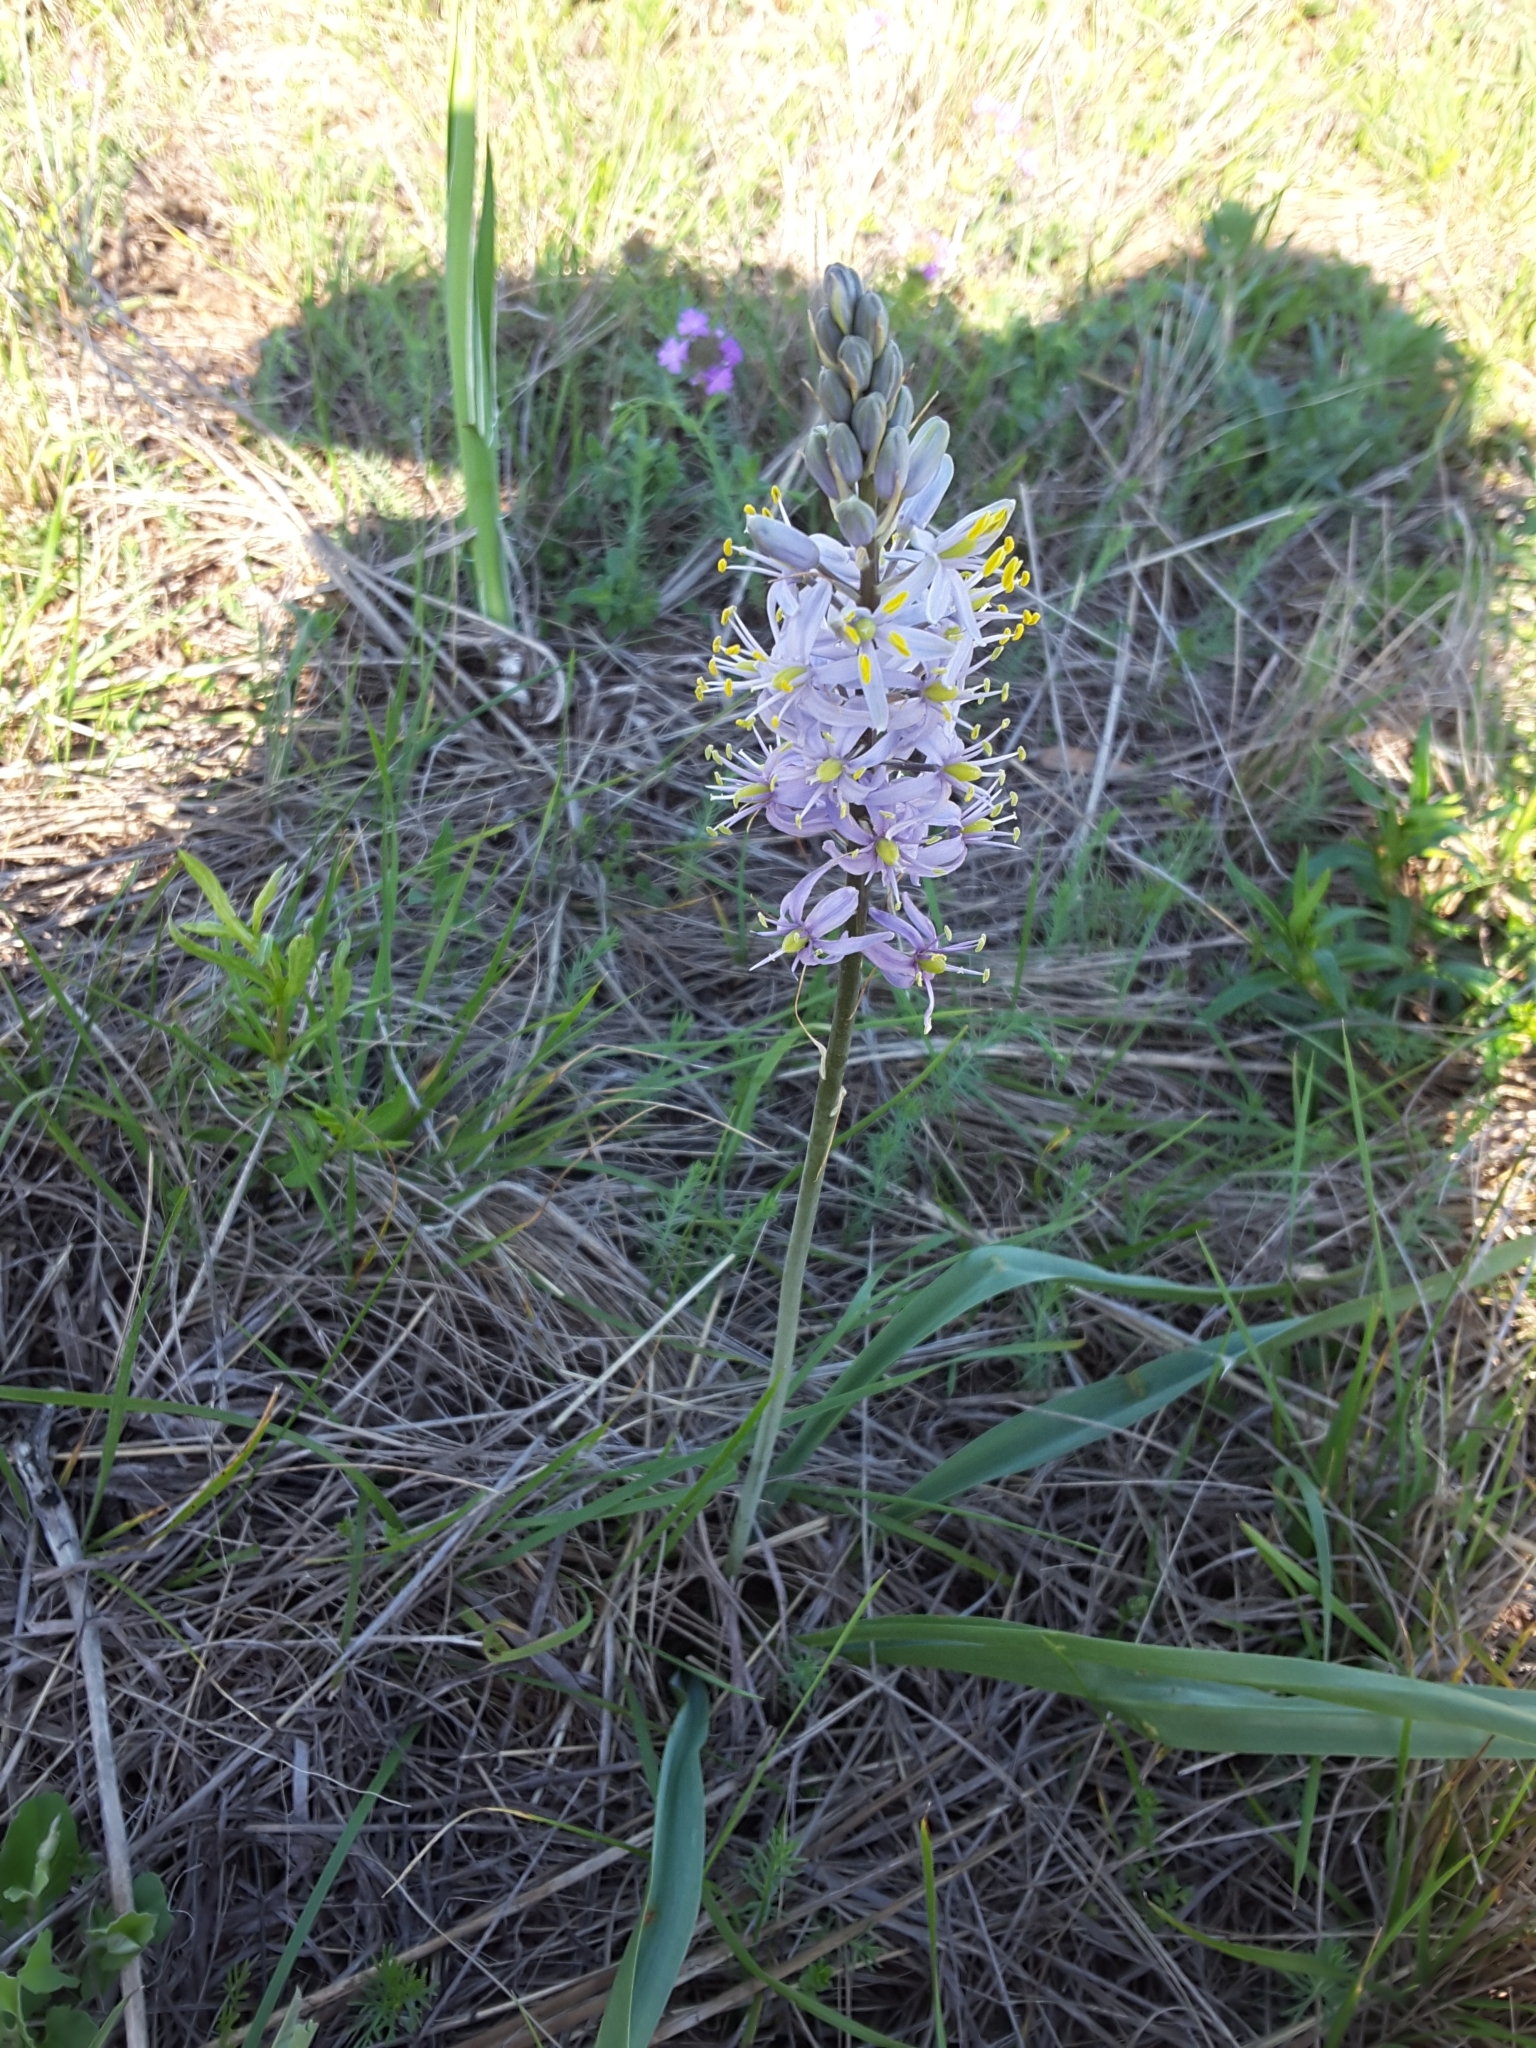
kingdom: Plantae
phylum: Tracheophyta
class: Liliopsida
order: Asparagales
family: Asparagaceae
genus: Camassia
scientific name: Camassia scilloides
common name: Wild hyacinth
